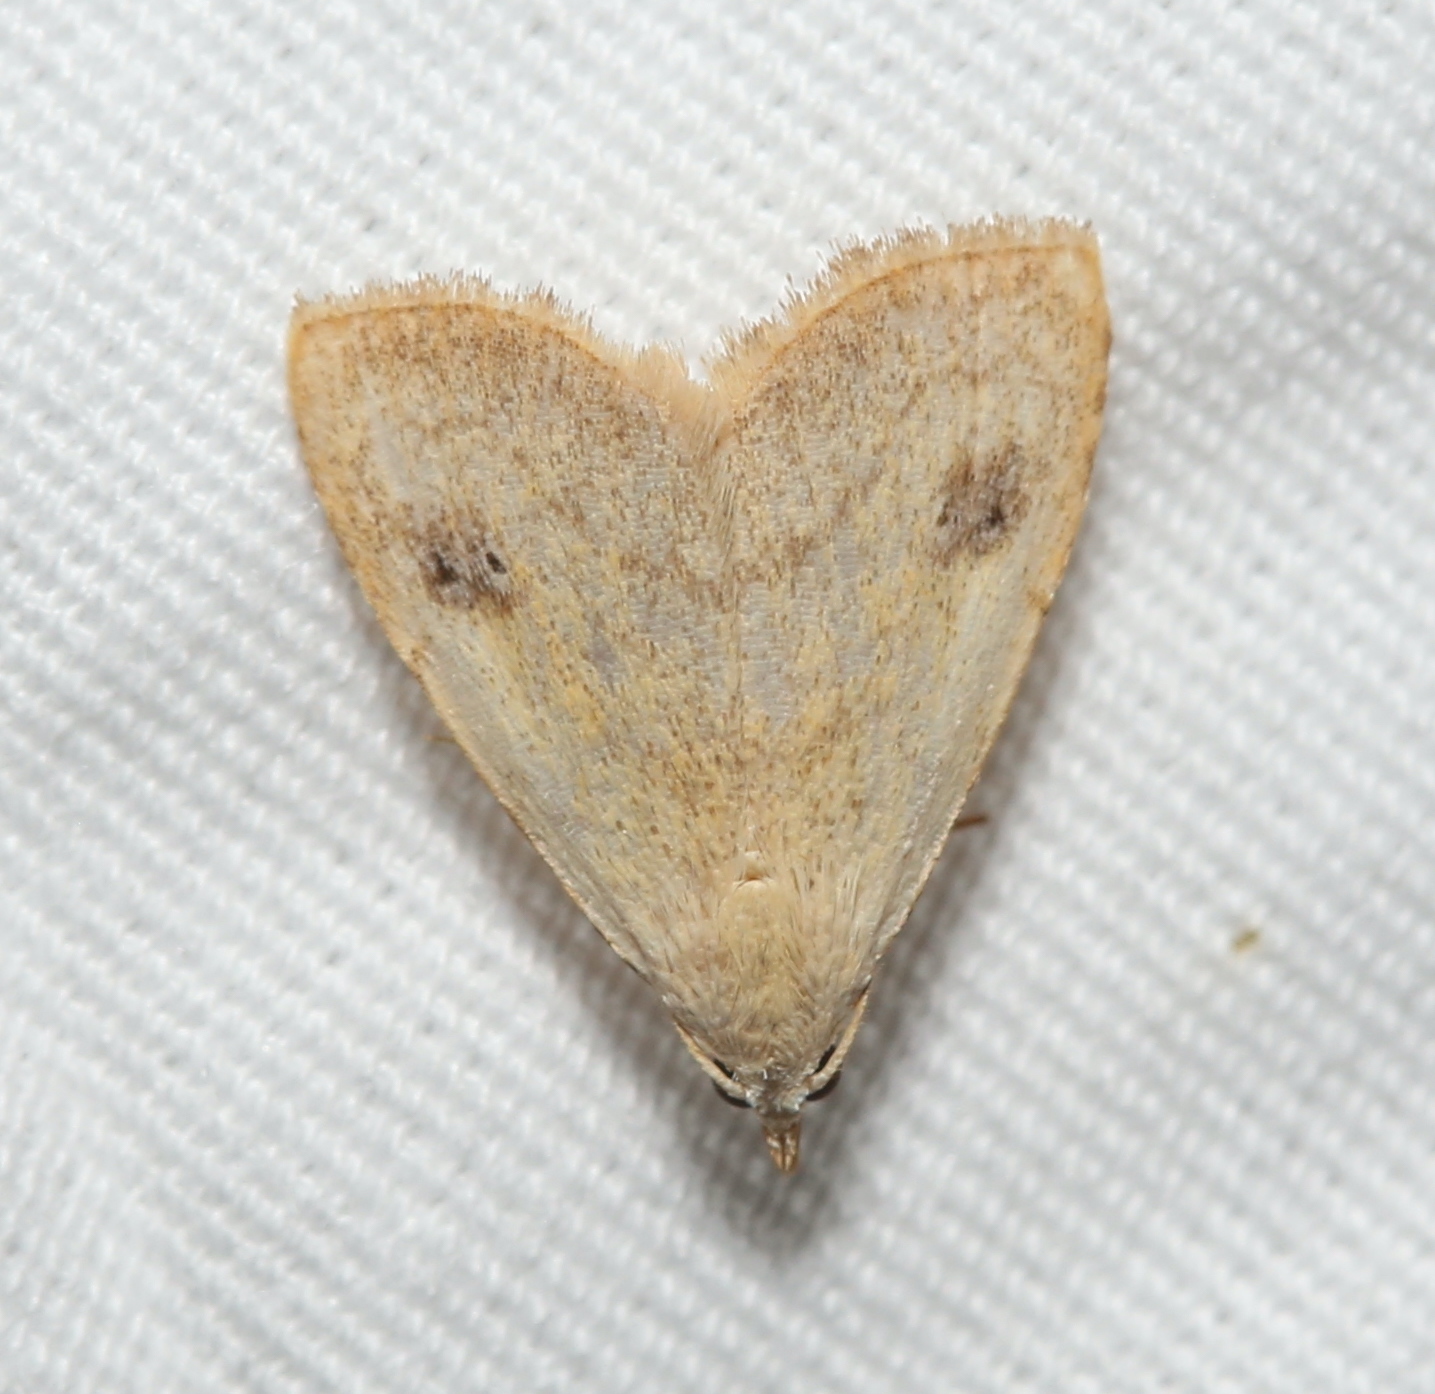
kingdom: Animalia
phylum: Arthropoda
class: Insecta
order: Lepidoptera
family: Erebidae
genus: Rivula
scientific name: Rivula propinqualis
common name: Spotted grass moth
